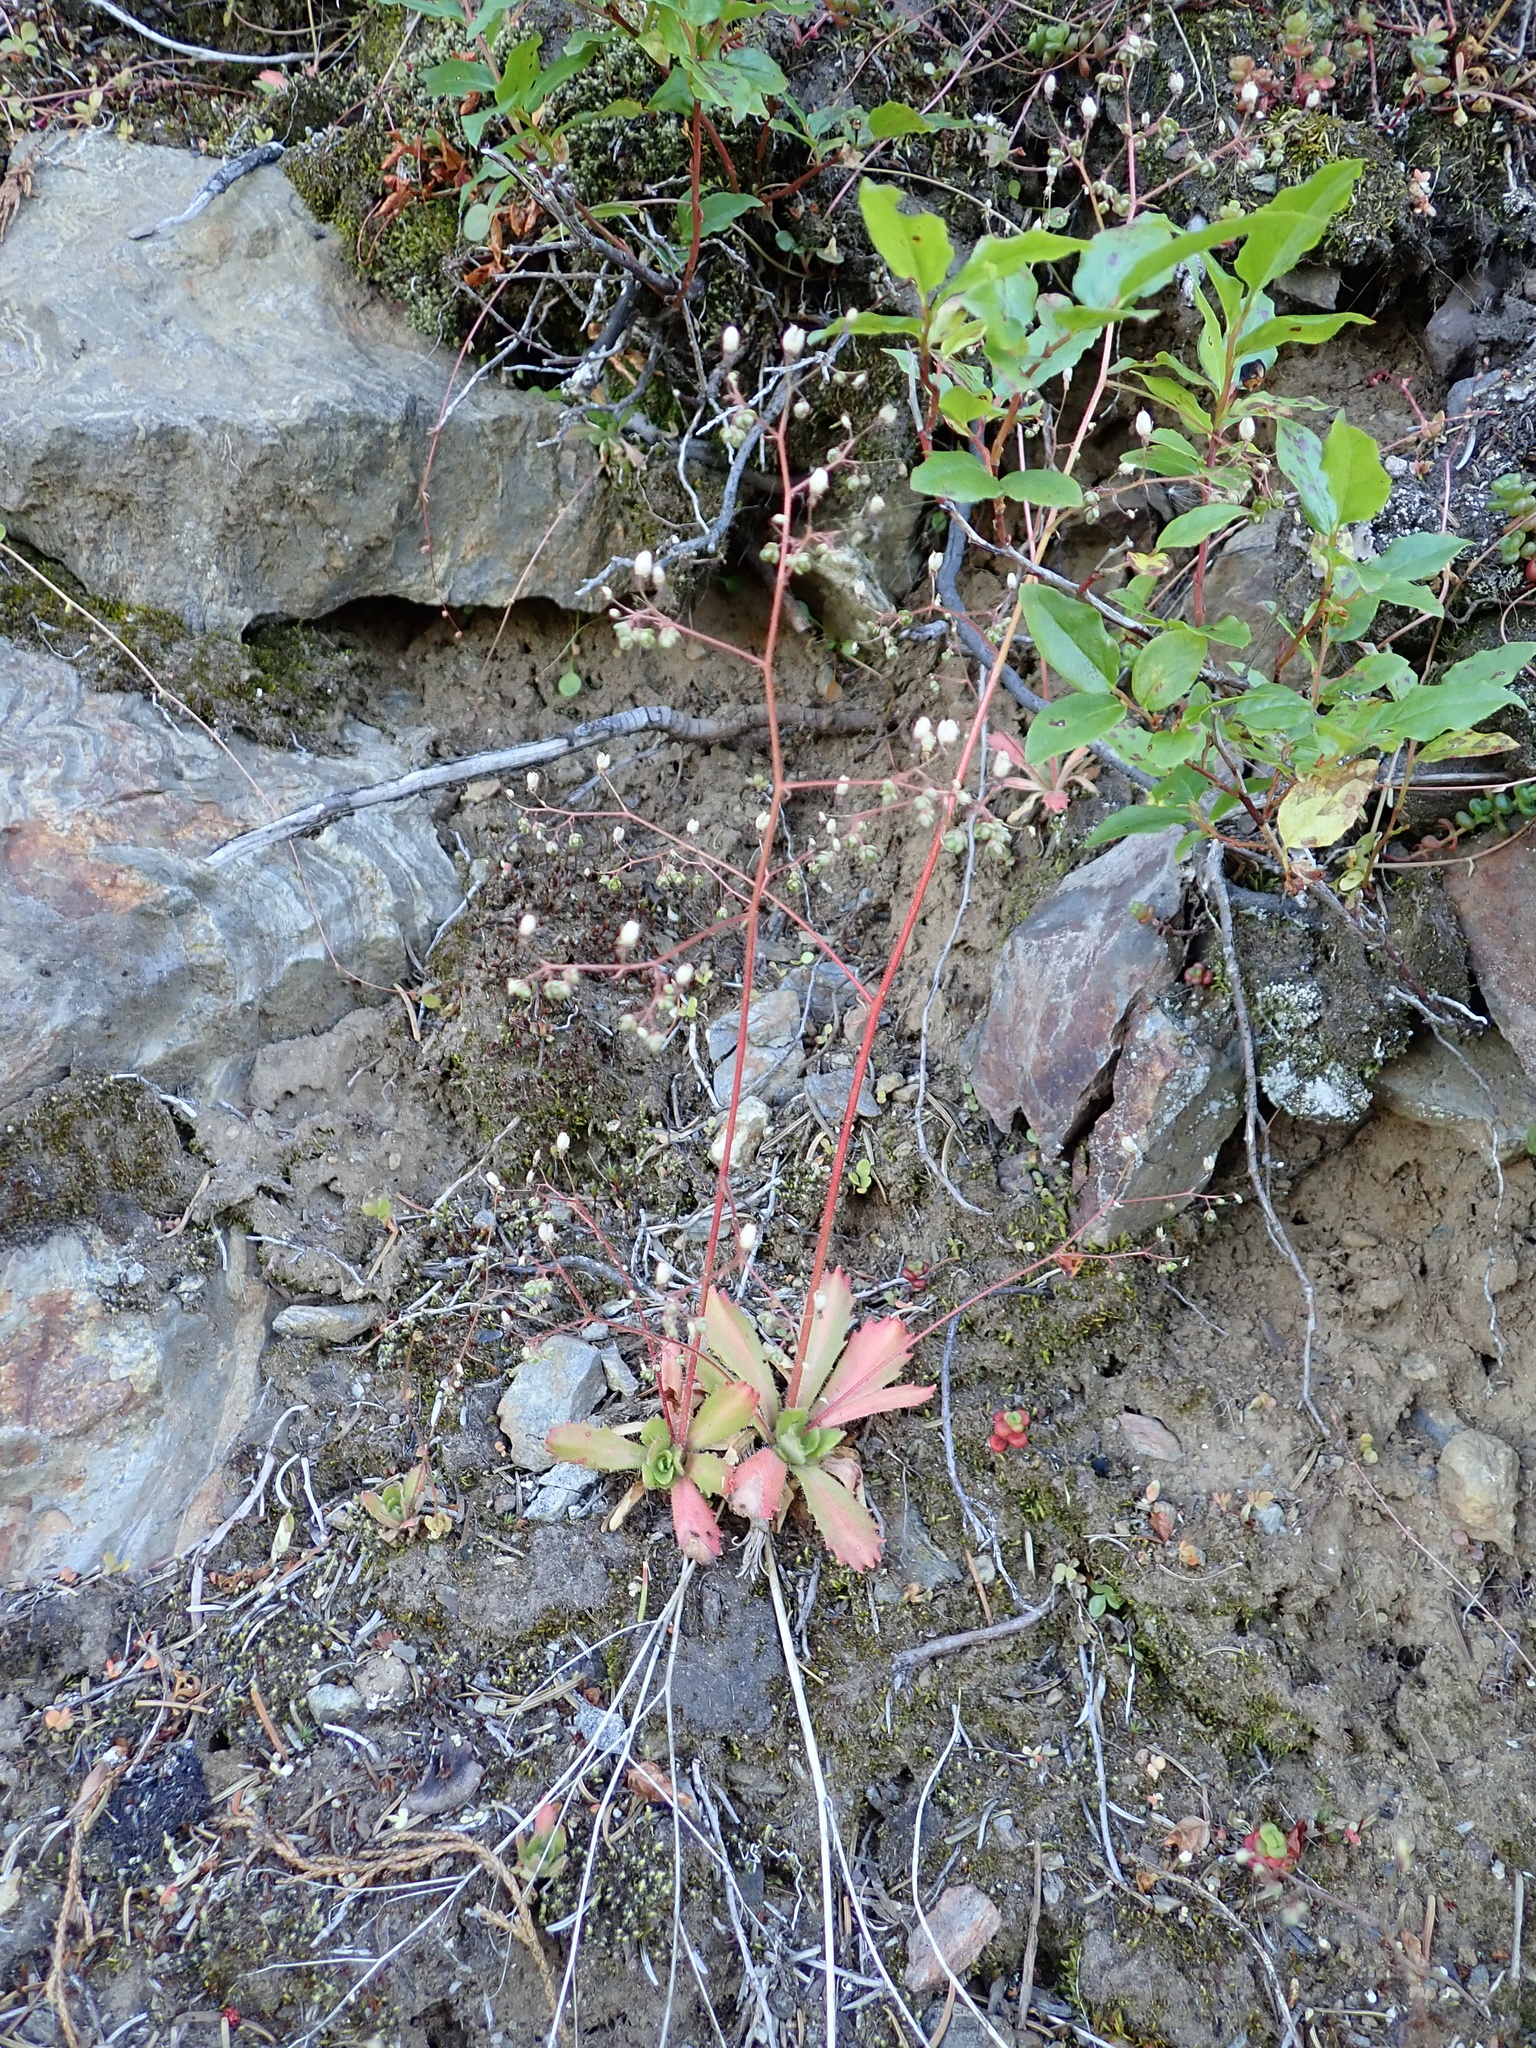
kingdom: Plantae
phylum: Tracheophyta
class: Magnoliopsida
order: Saxifragales
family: Saxifragaceae
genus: Micranthes
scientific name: Micranthes ferruginea
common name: Rusty saxifrage
